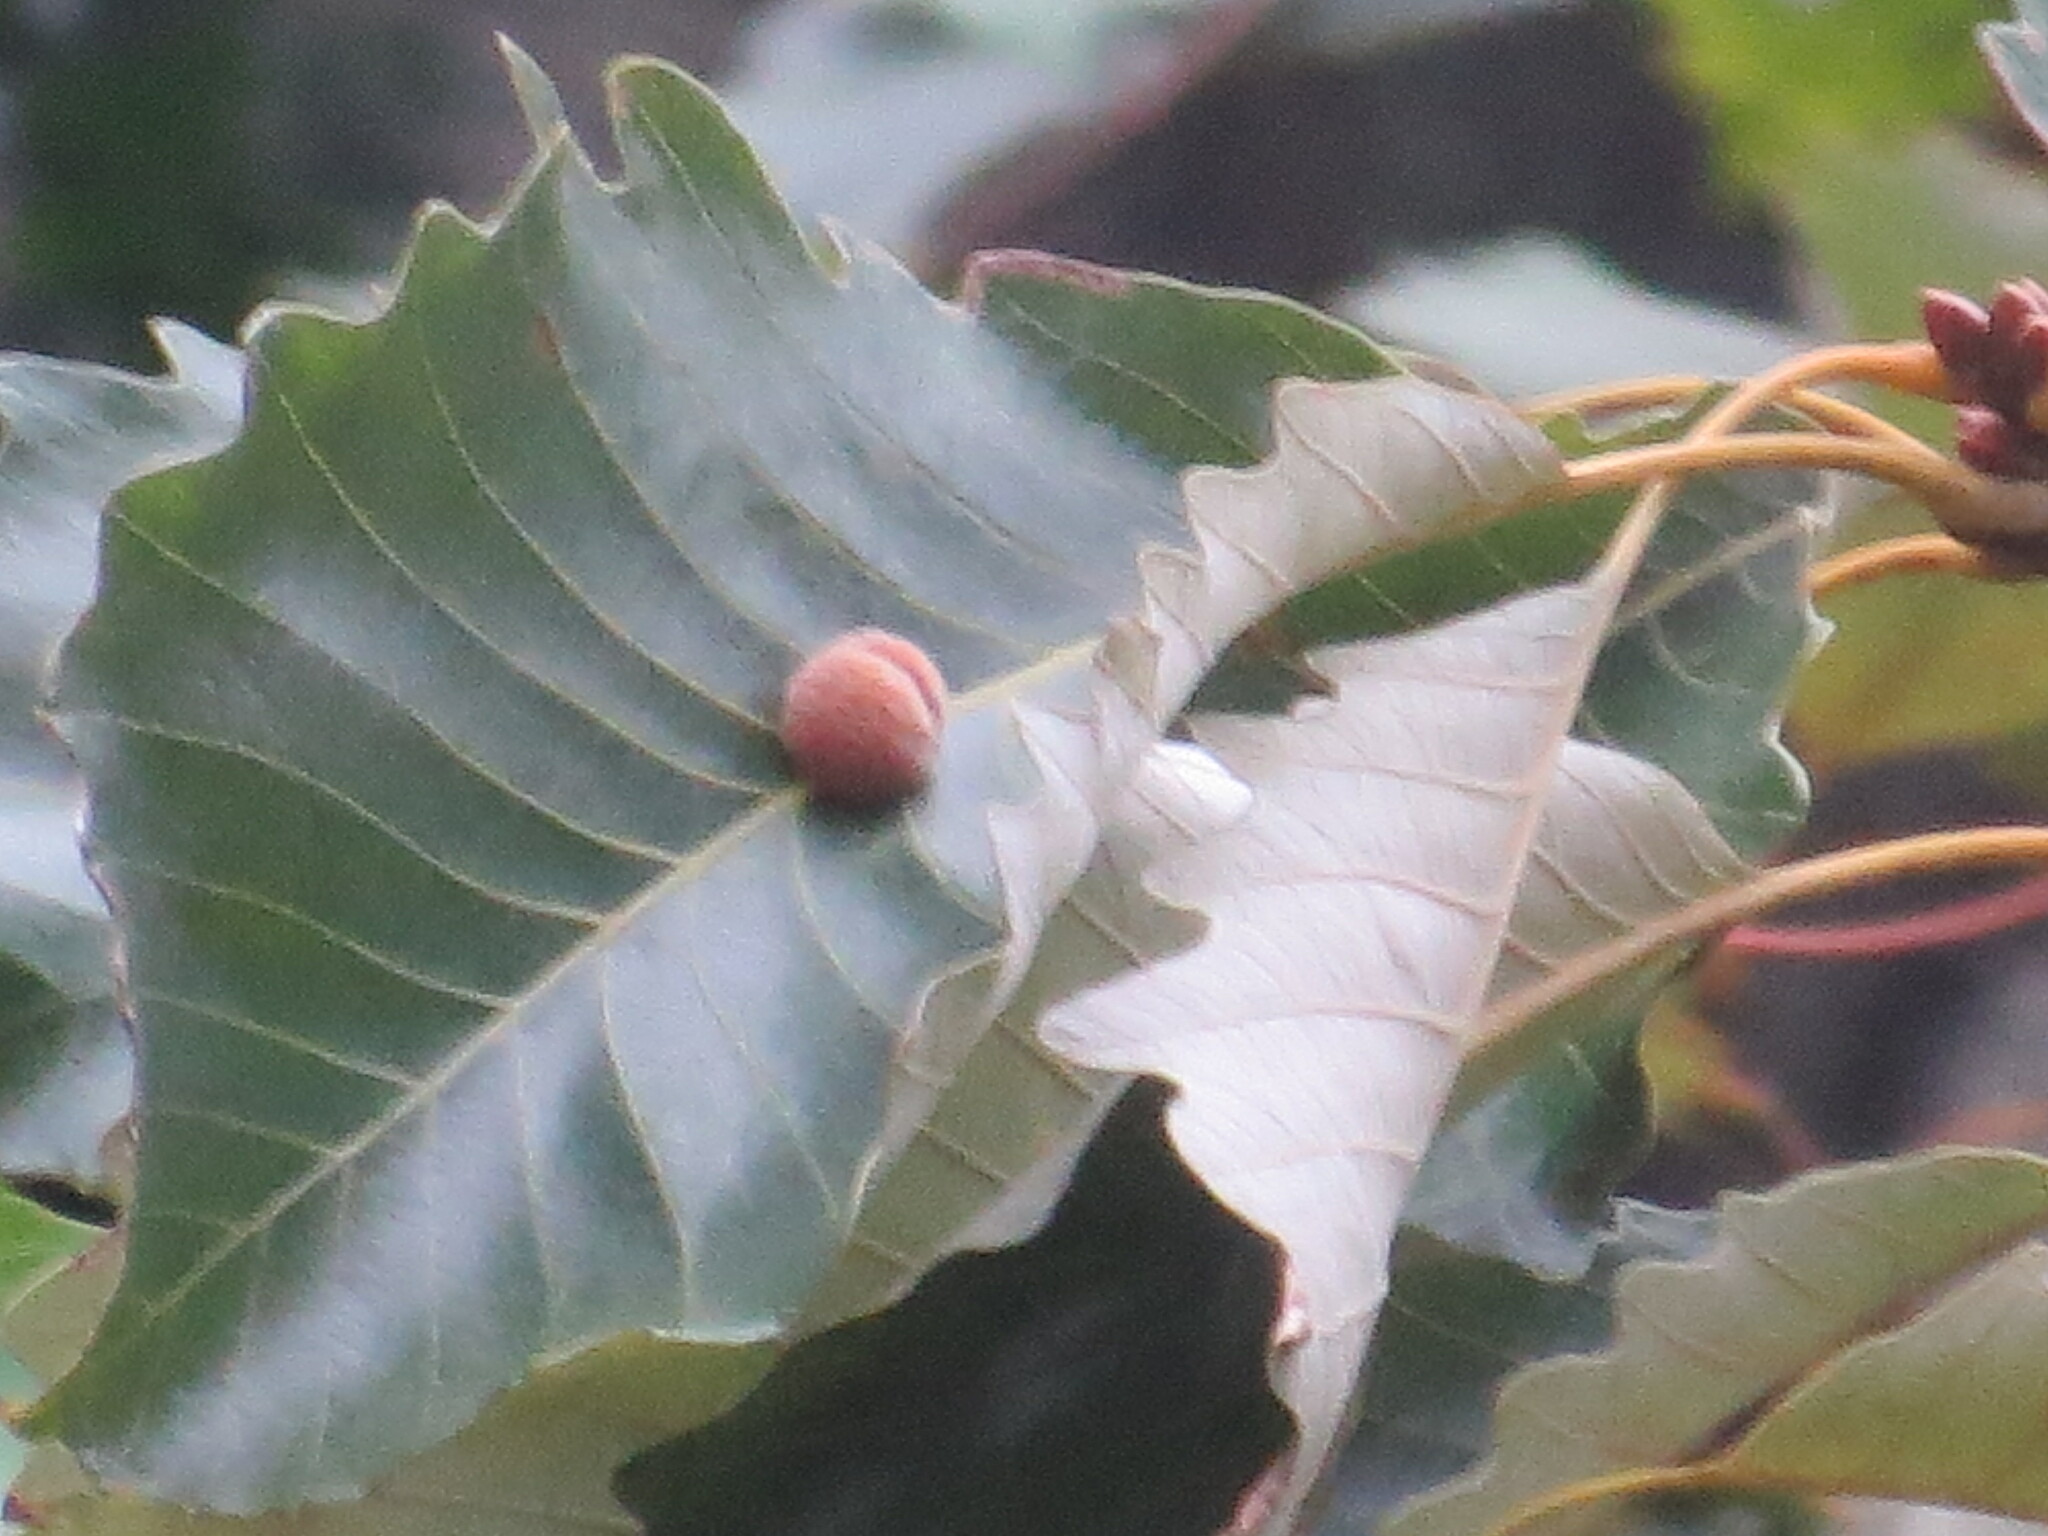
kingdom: Animalia
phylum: Arthropoda
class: Insecta
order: Hymenoptera
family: Cynipidae
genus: Andricus
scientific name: Andricus quercusflocci
